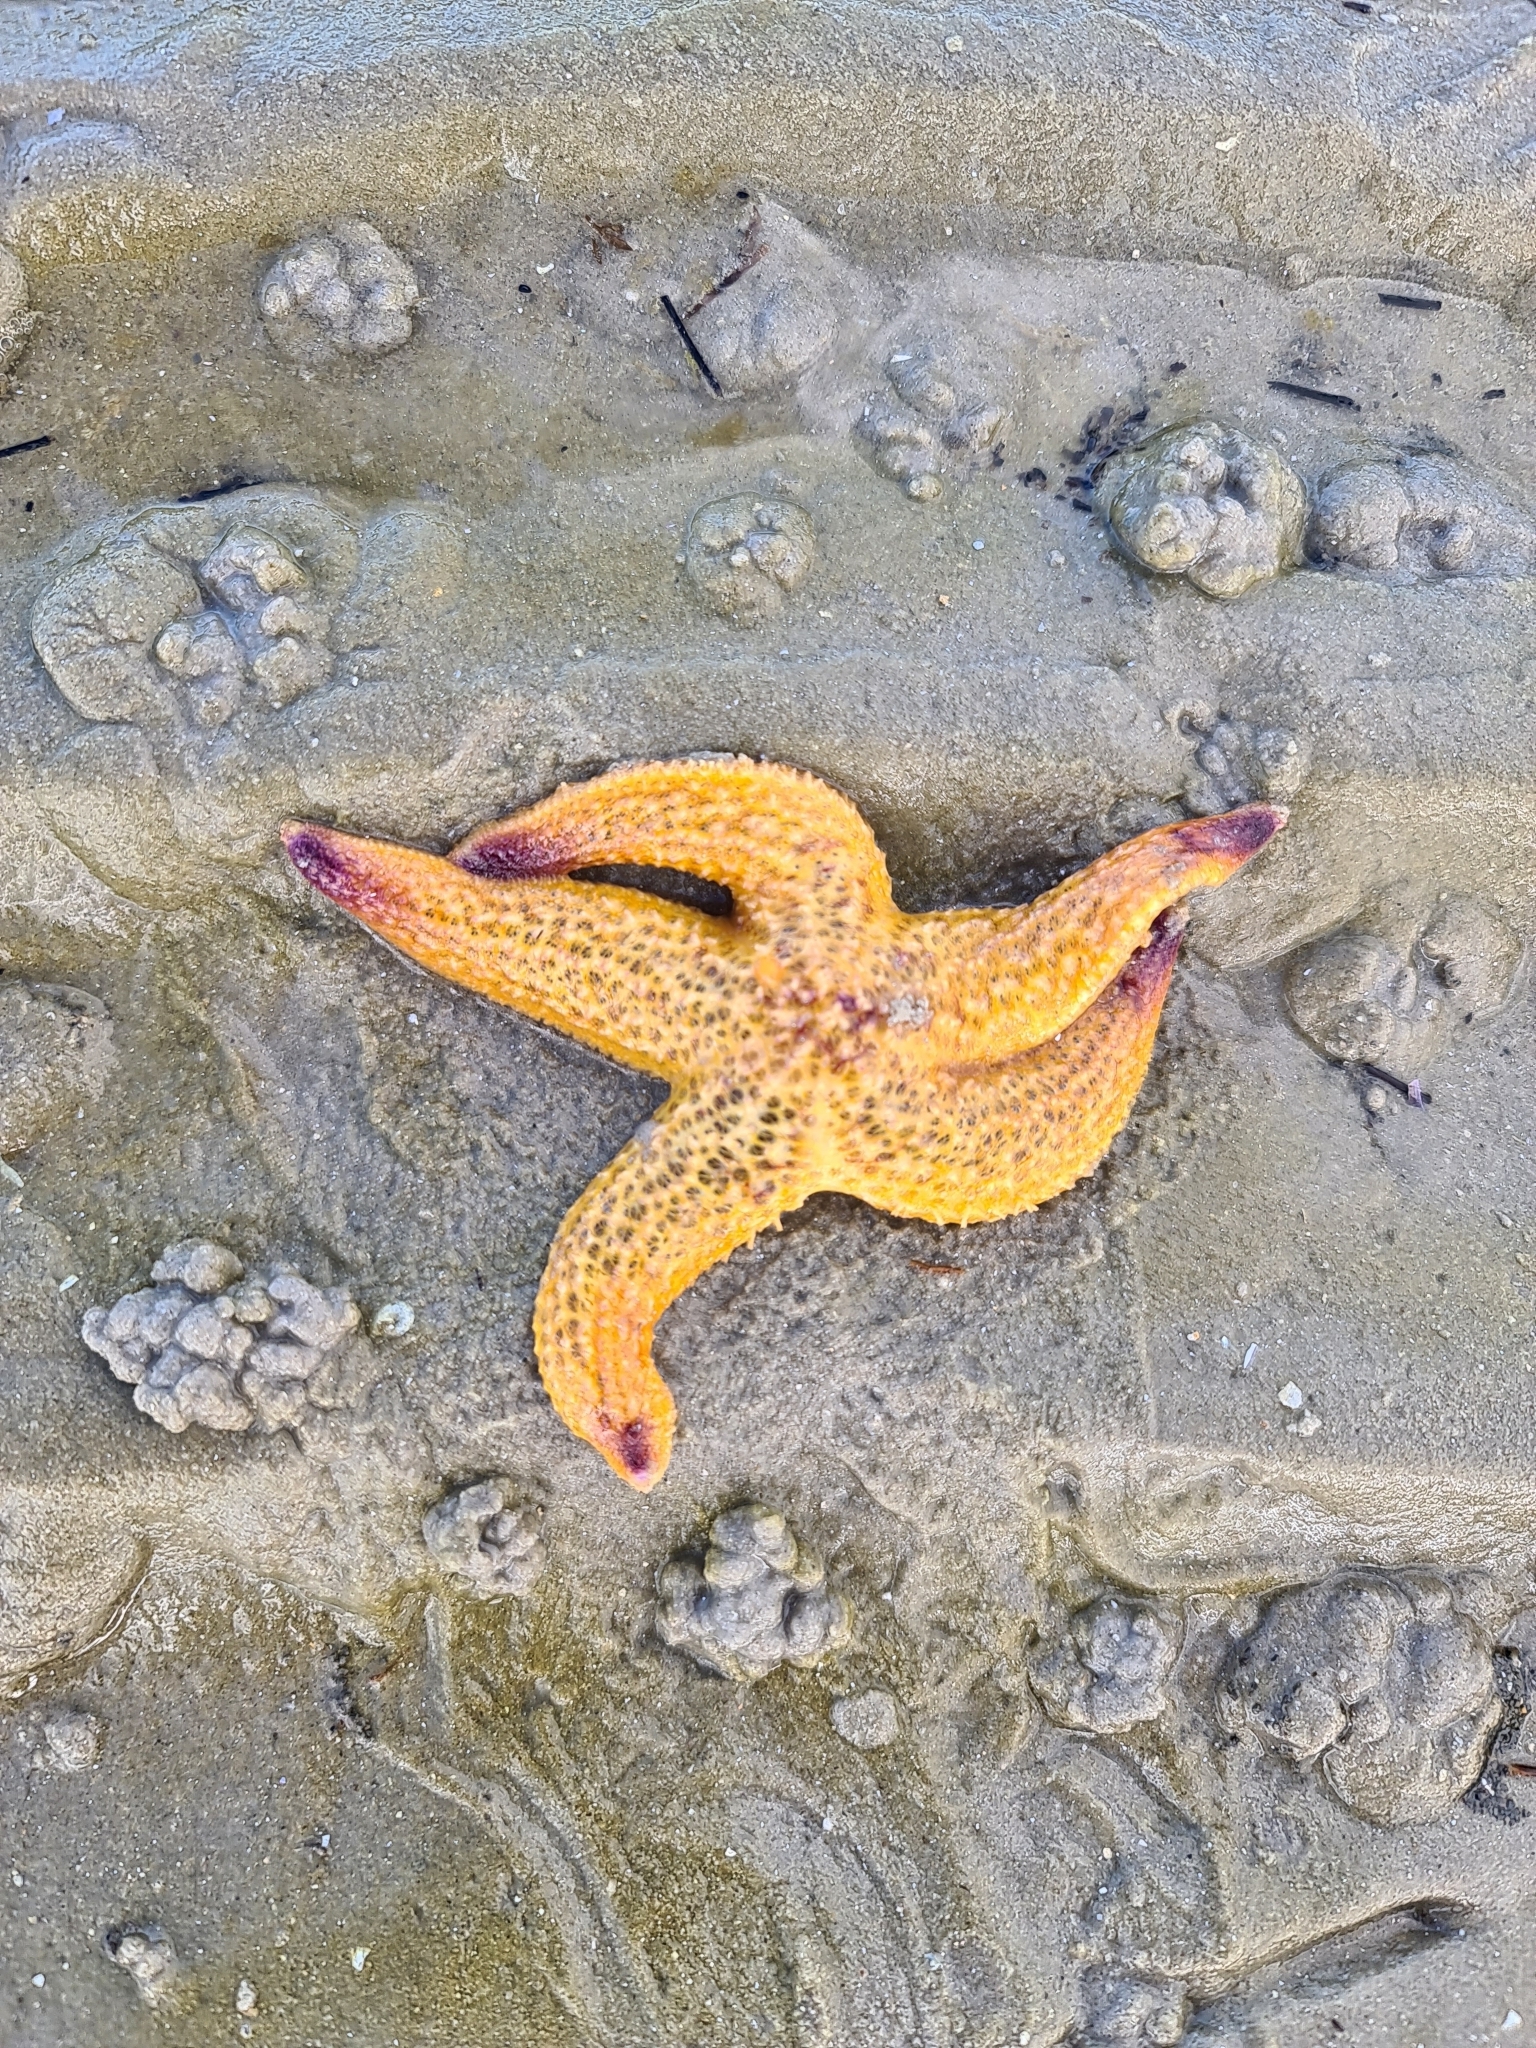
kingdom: Animalia
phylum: Echinodermata
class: Asteroidea
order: Forcipulatida
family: Asteriidae
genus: Asterias
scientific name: Asterias amurensis
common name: Flat-bottomed star
